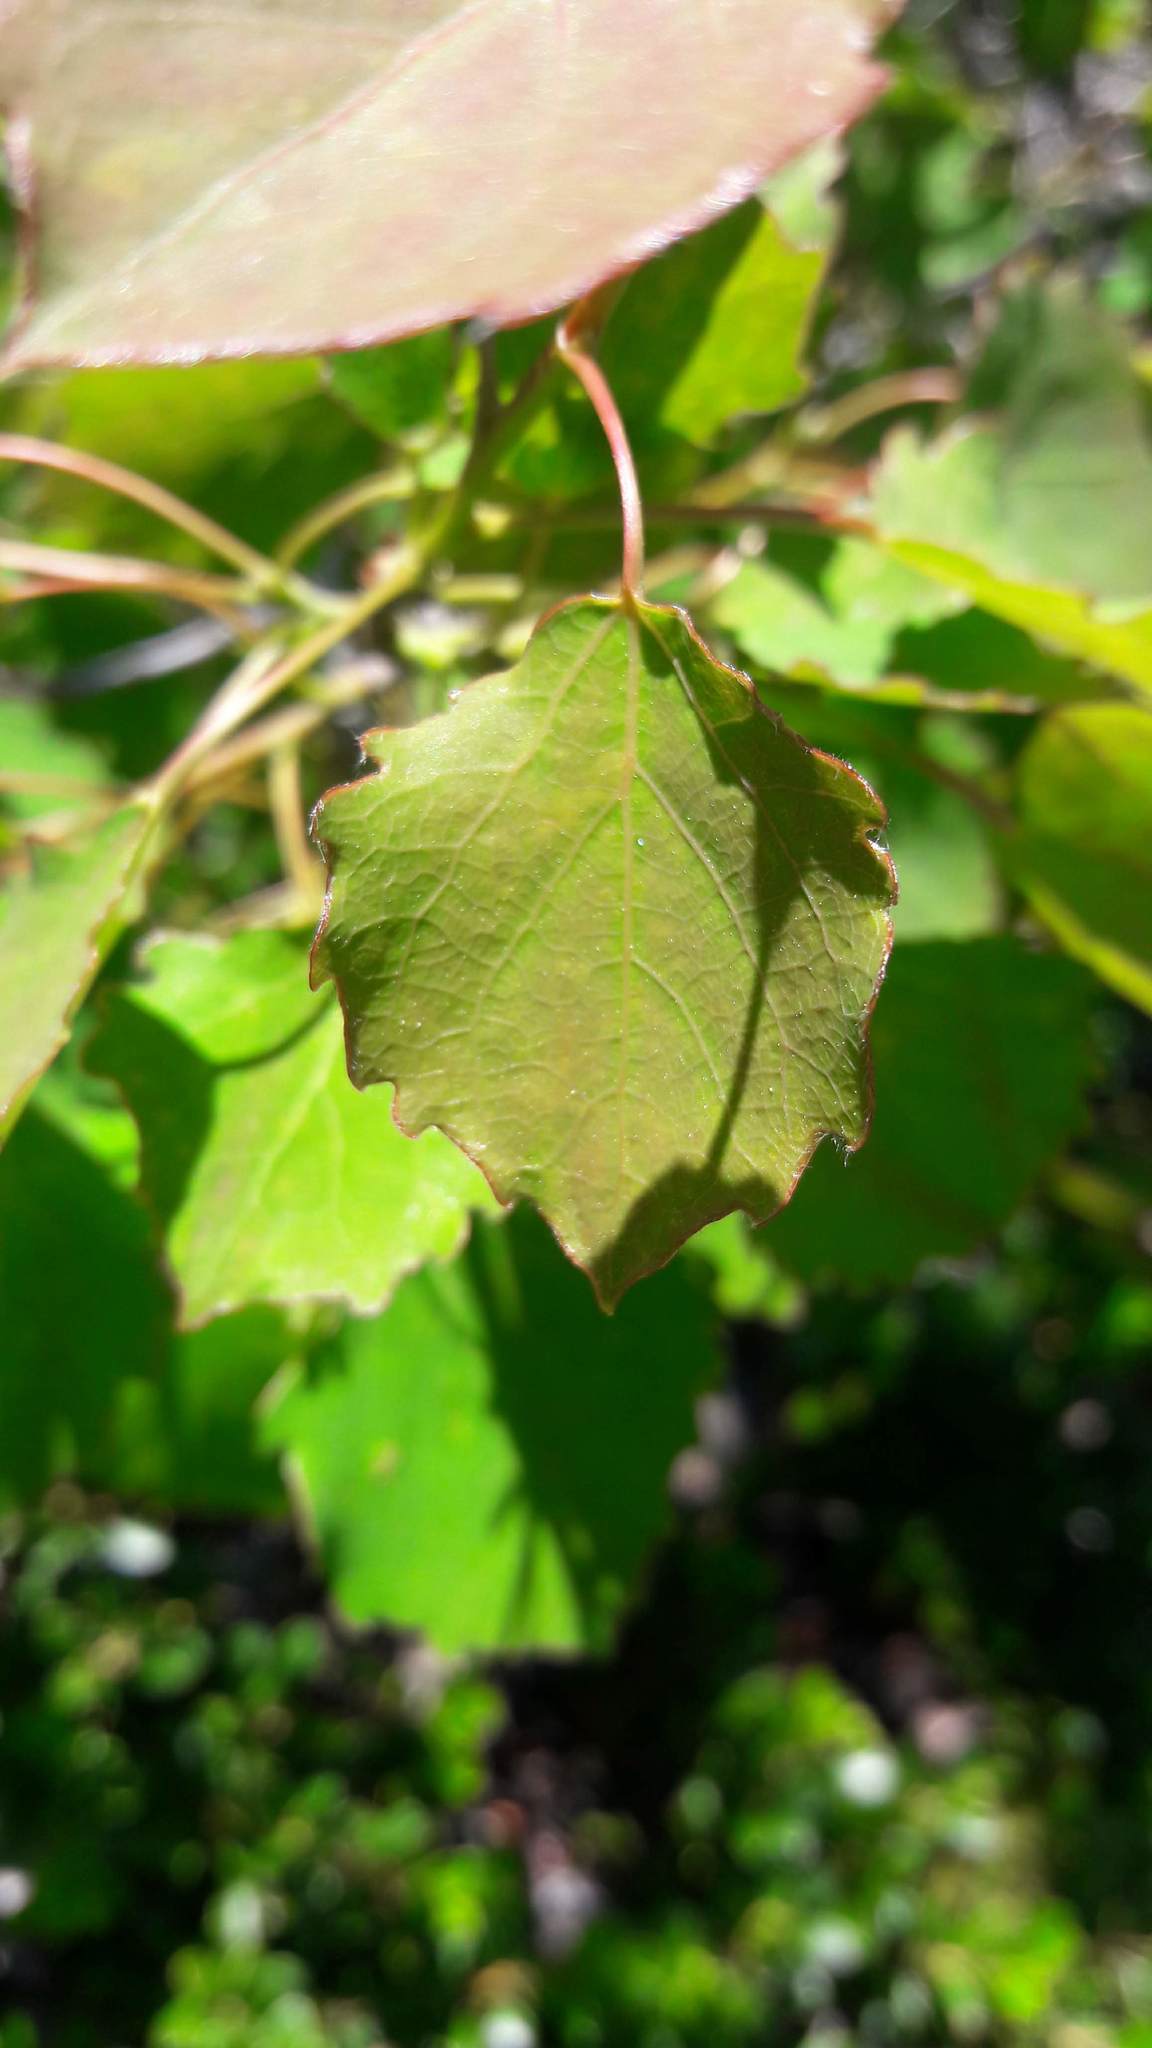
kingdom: Plantae
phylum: Tracheophyta
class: Magnoliopsida
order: Malpighiales
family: Salicaceae
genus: Populus
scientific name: Populus tremula
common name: European aspen
